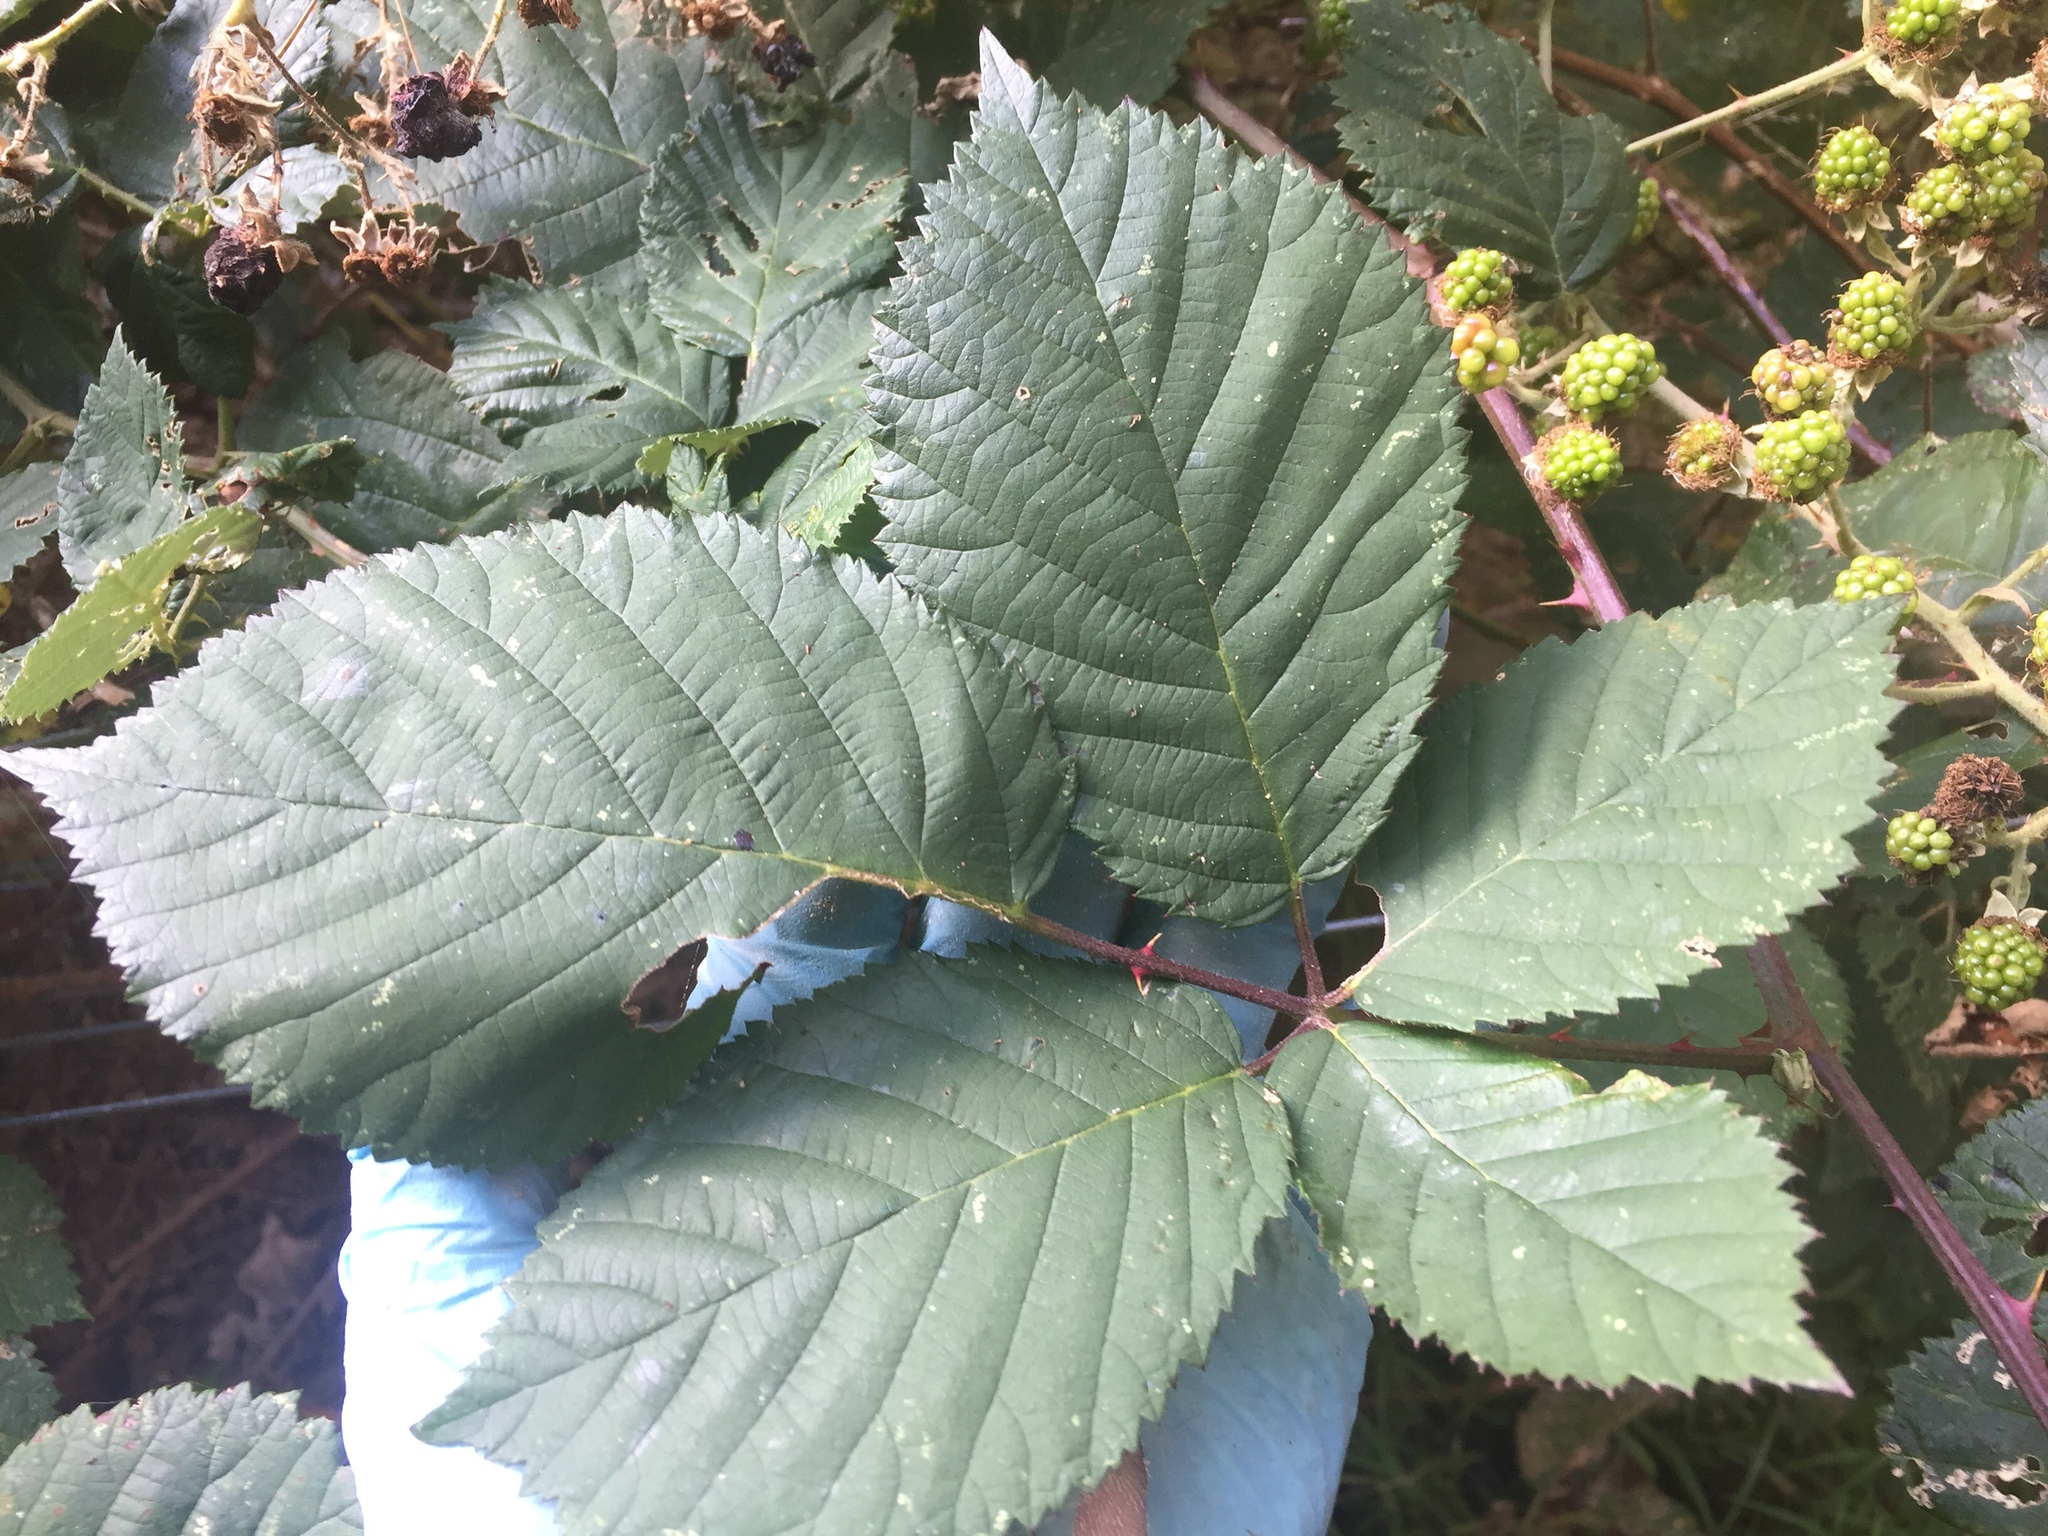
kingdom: Plantae
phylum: Tracheophyta
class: Magnoliopsida
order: Rosales
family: Rosaceae
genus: Rubus
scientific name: Rubus
